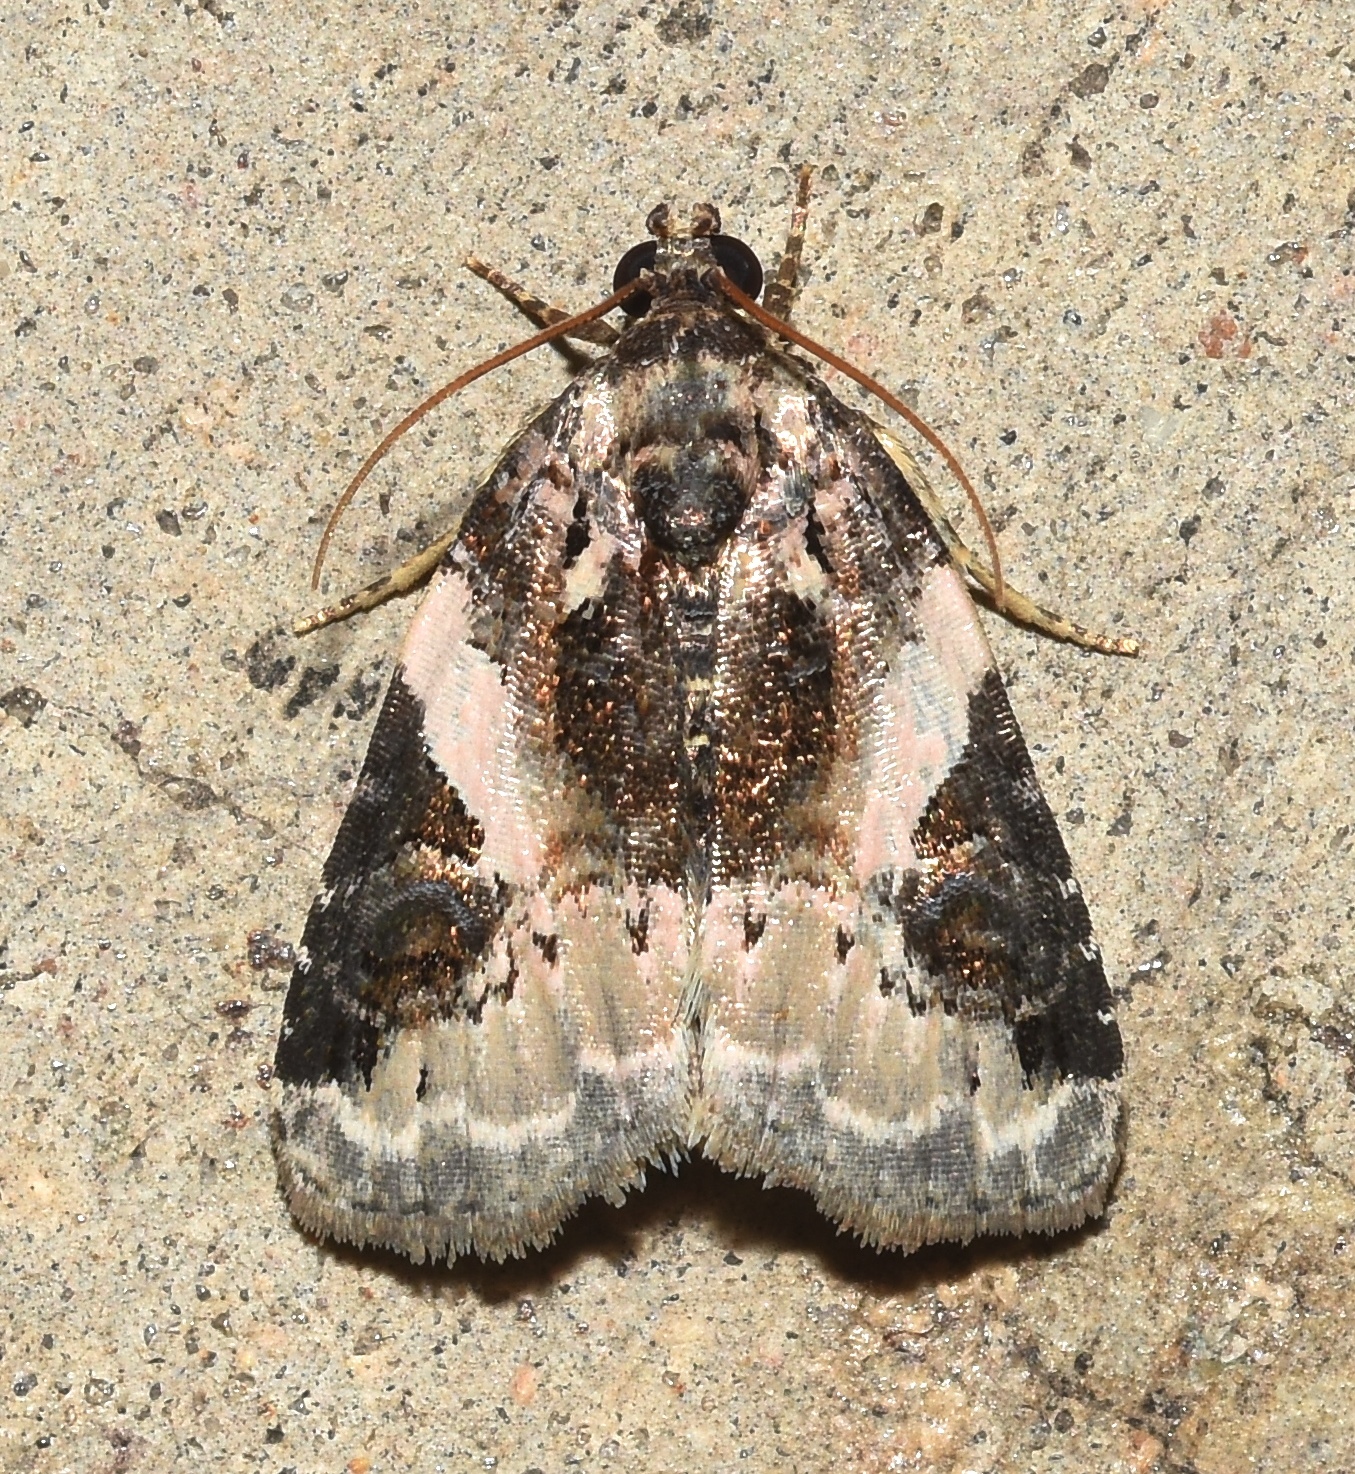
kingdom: Animalia
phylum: Arthropoda
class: Insecta
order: Lepidoptera
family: Noctuidae
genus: Pseudeustrotia
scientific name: Pseudeustrotia carneola
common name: Pink-barred lithacodia moth
